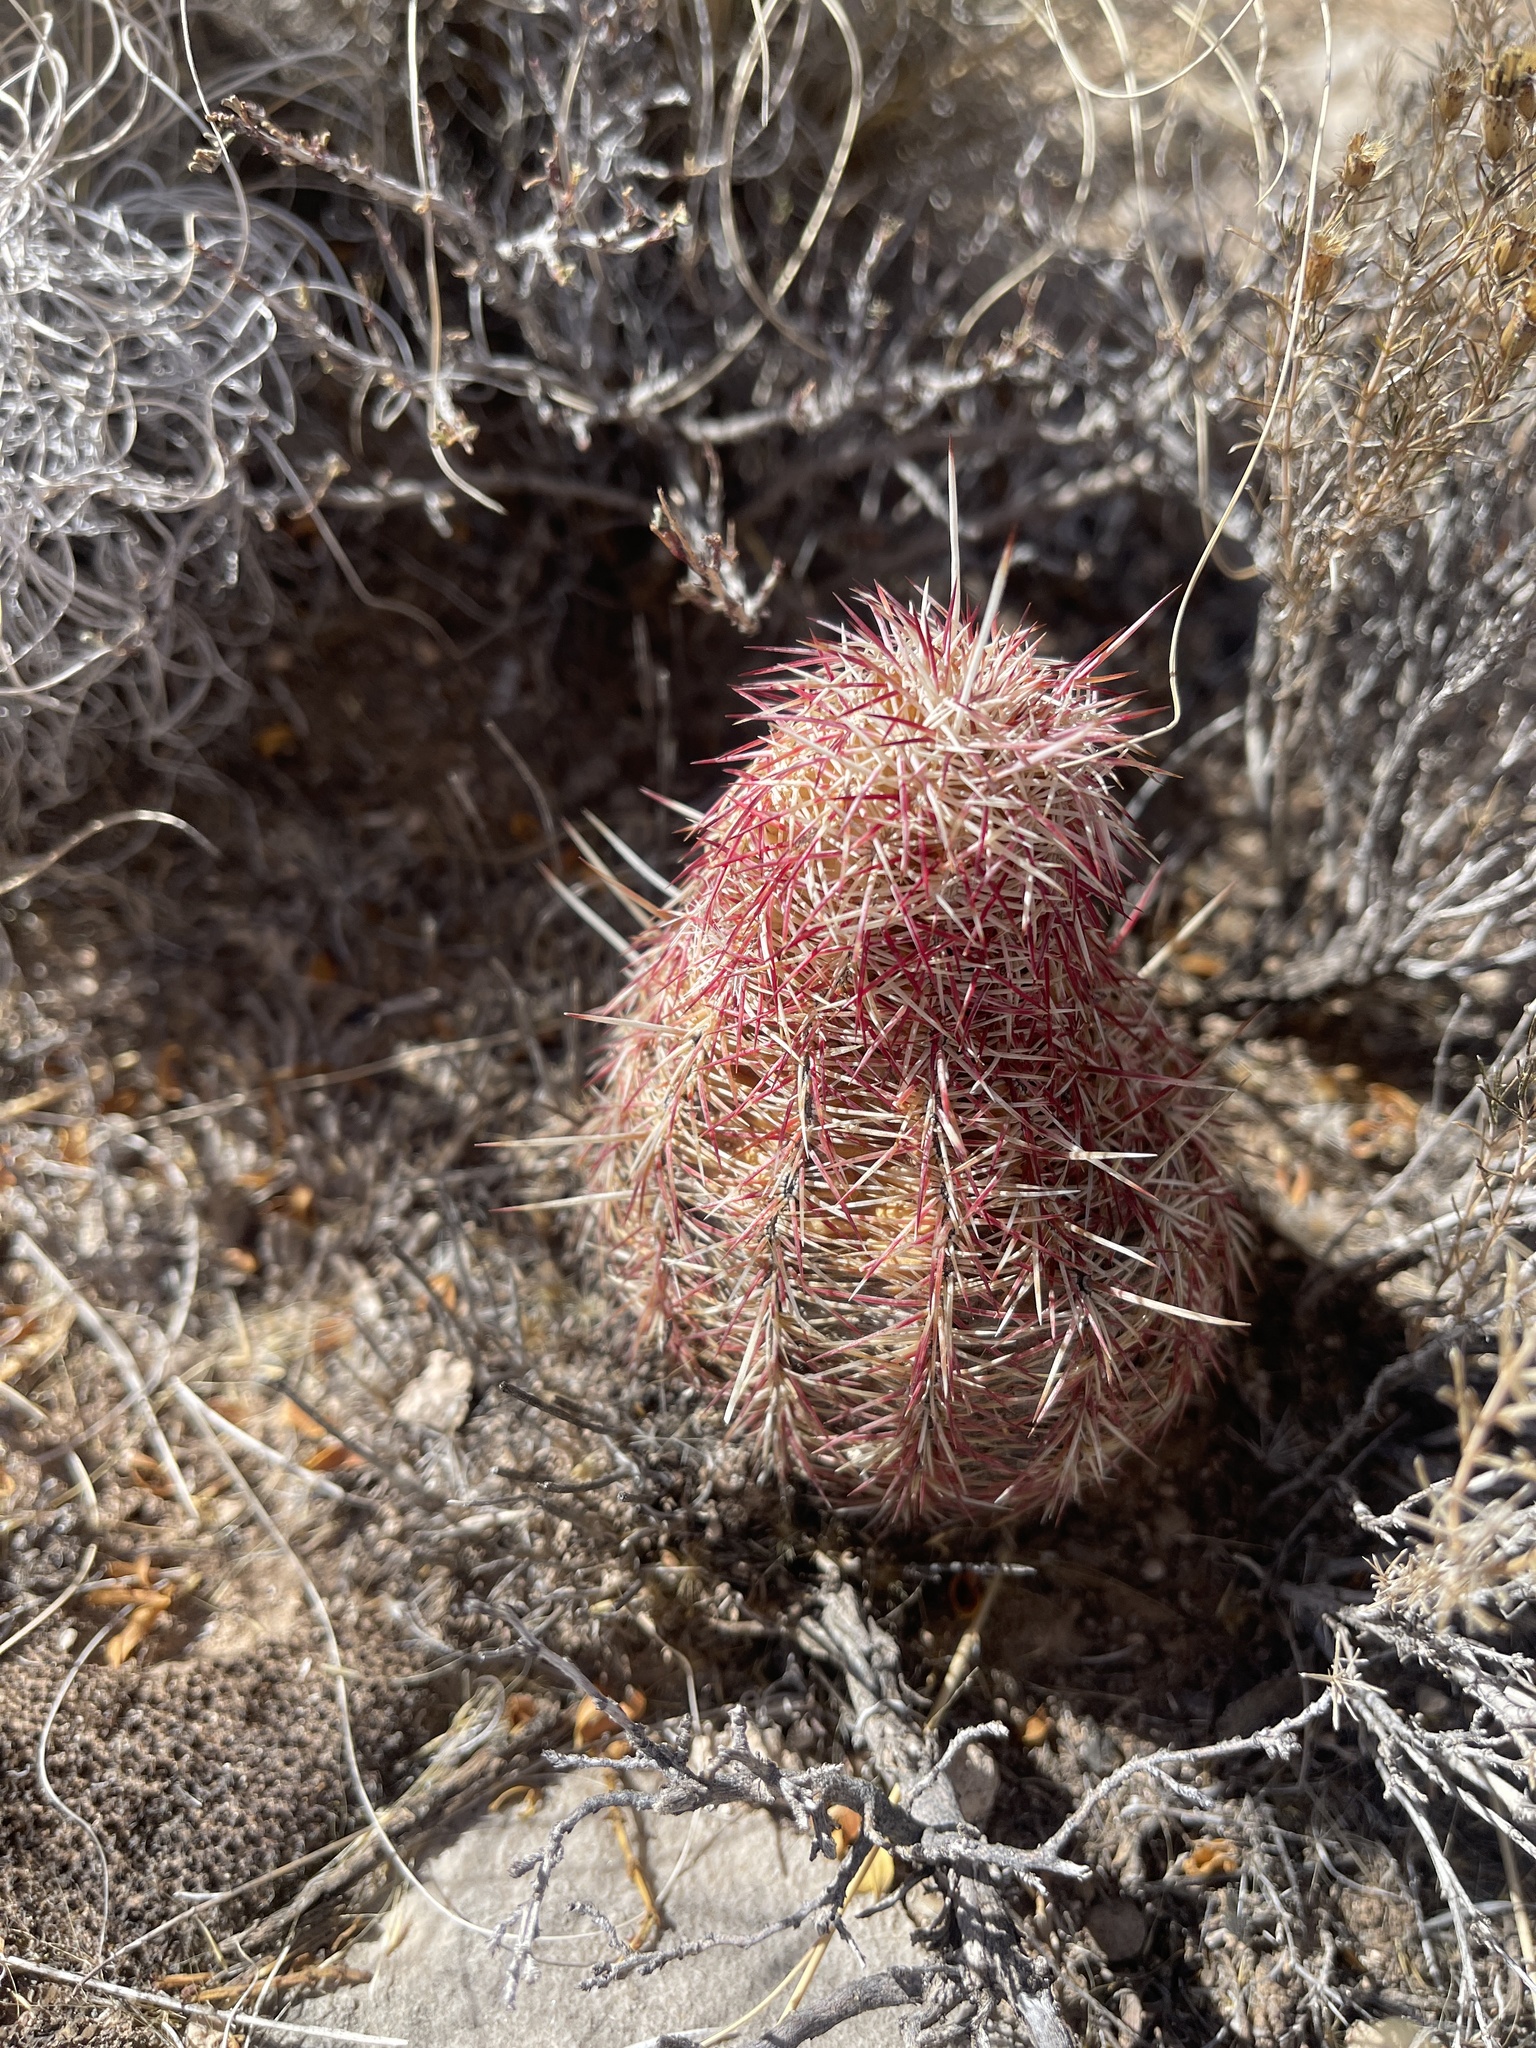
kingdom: Plantae
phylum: Tracheophyta
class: Magnoliopsida
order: Caryophyllales
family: Cactaceae
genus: Echinocereus
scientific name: Echinocereus viridiflorus
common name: Nylon hedgehog cactus
